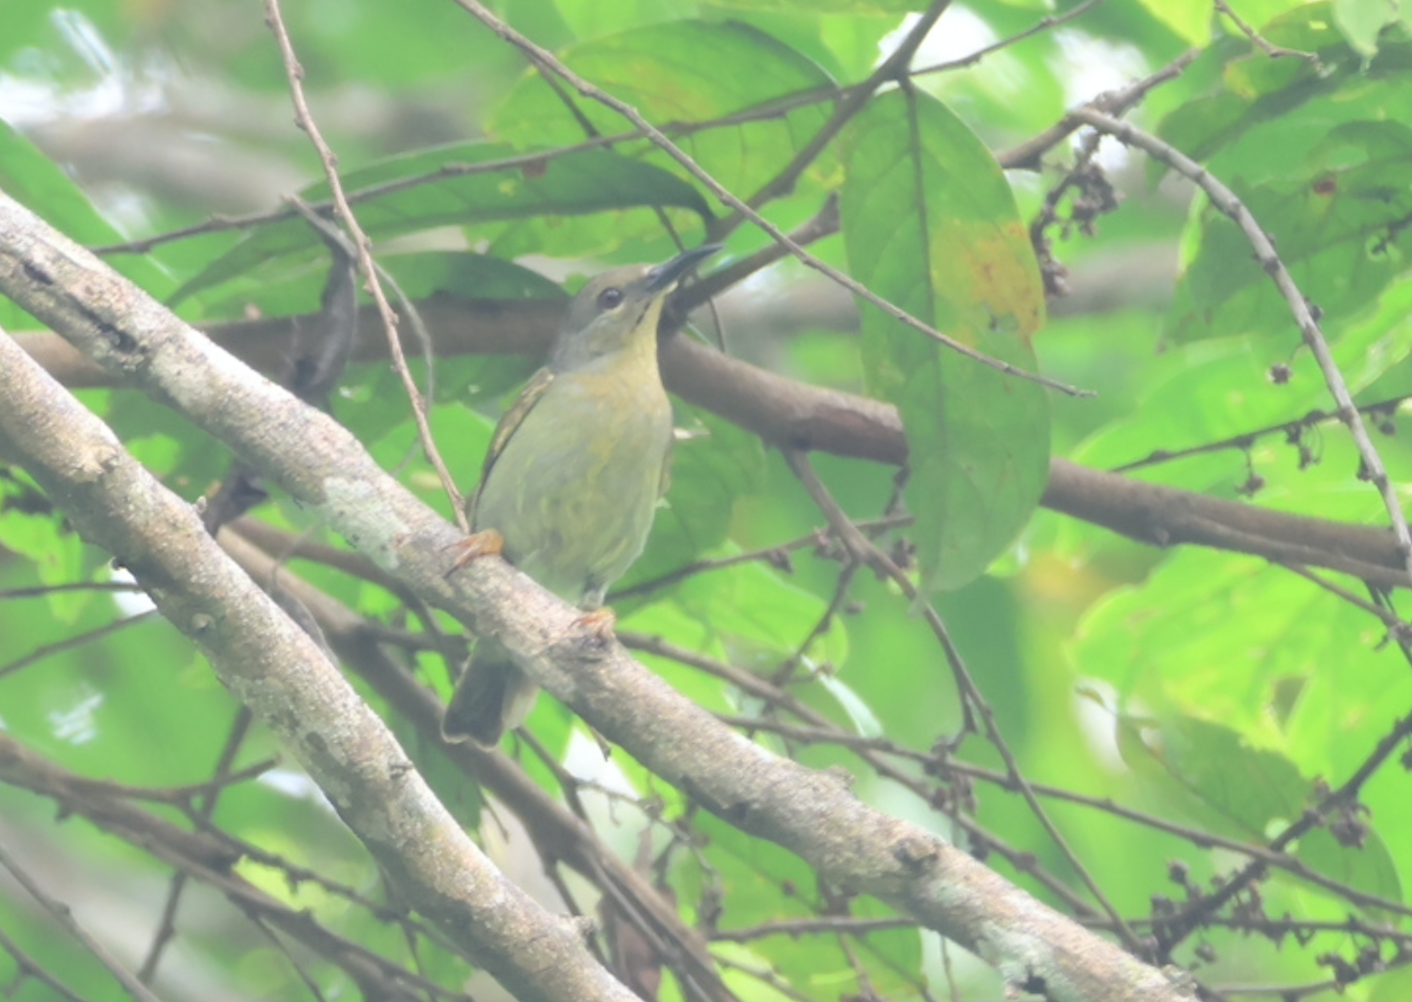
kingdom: Animalia
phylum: Chordata
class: Aves
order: Passeriformes
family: Nectariniidae
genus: Anthreptes
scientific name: Anthreptes simplex
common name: Plain sunbird
